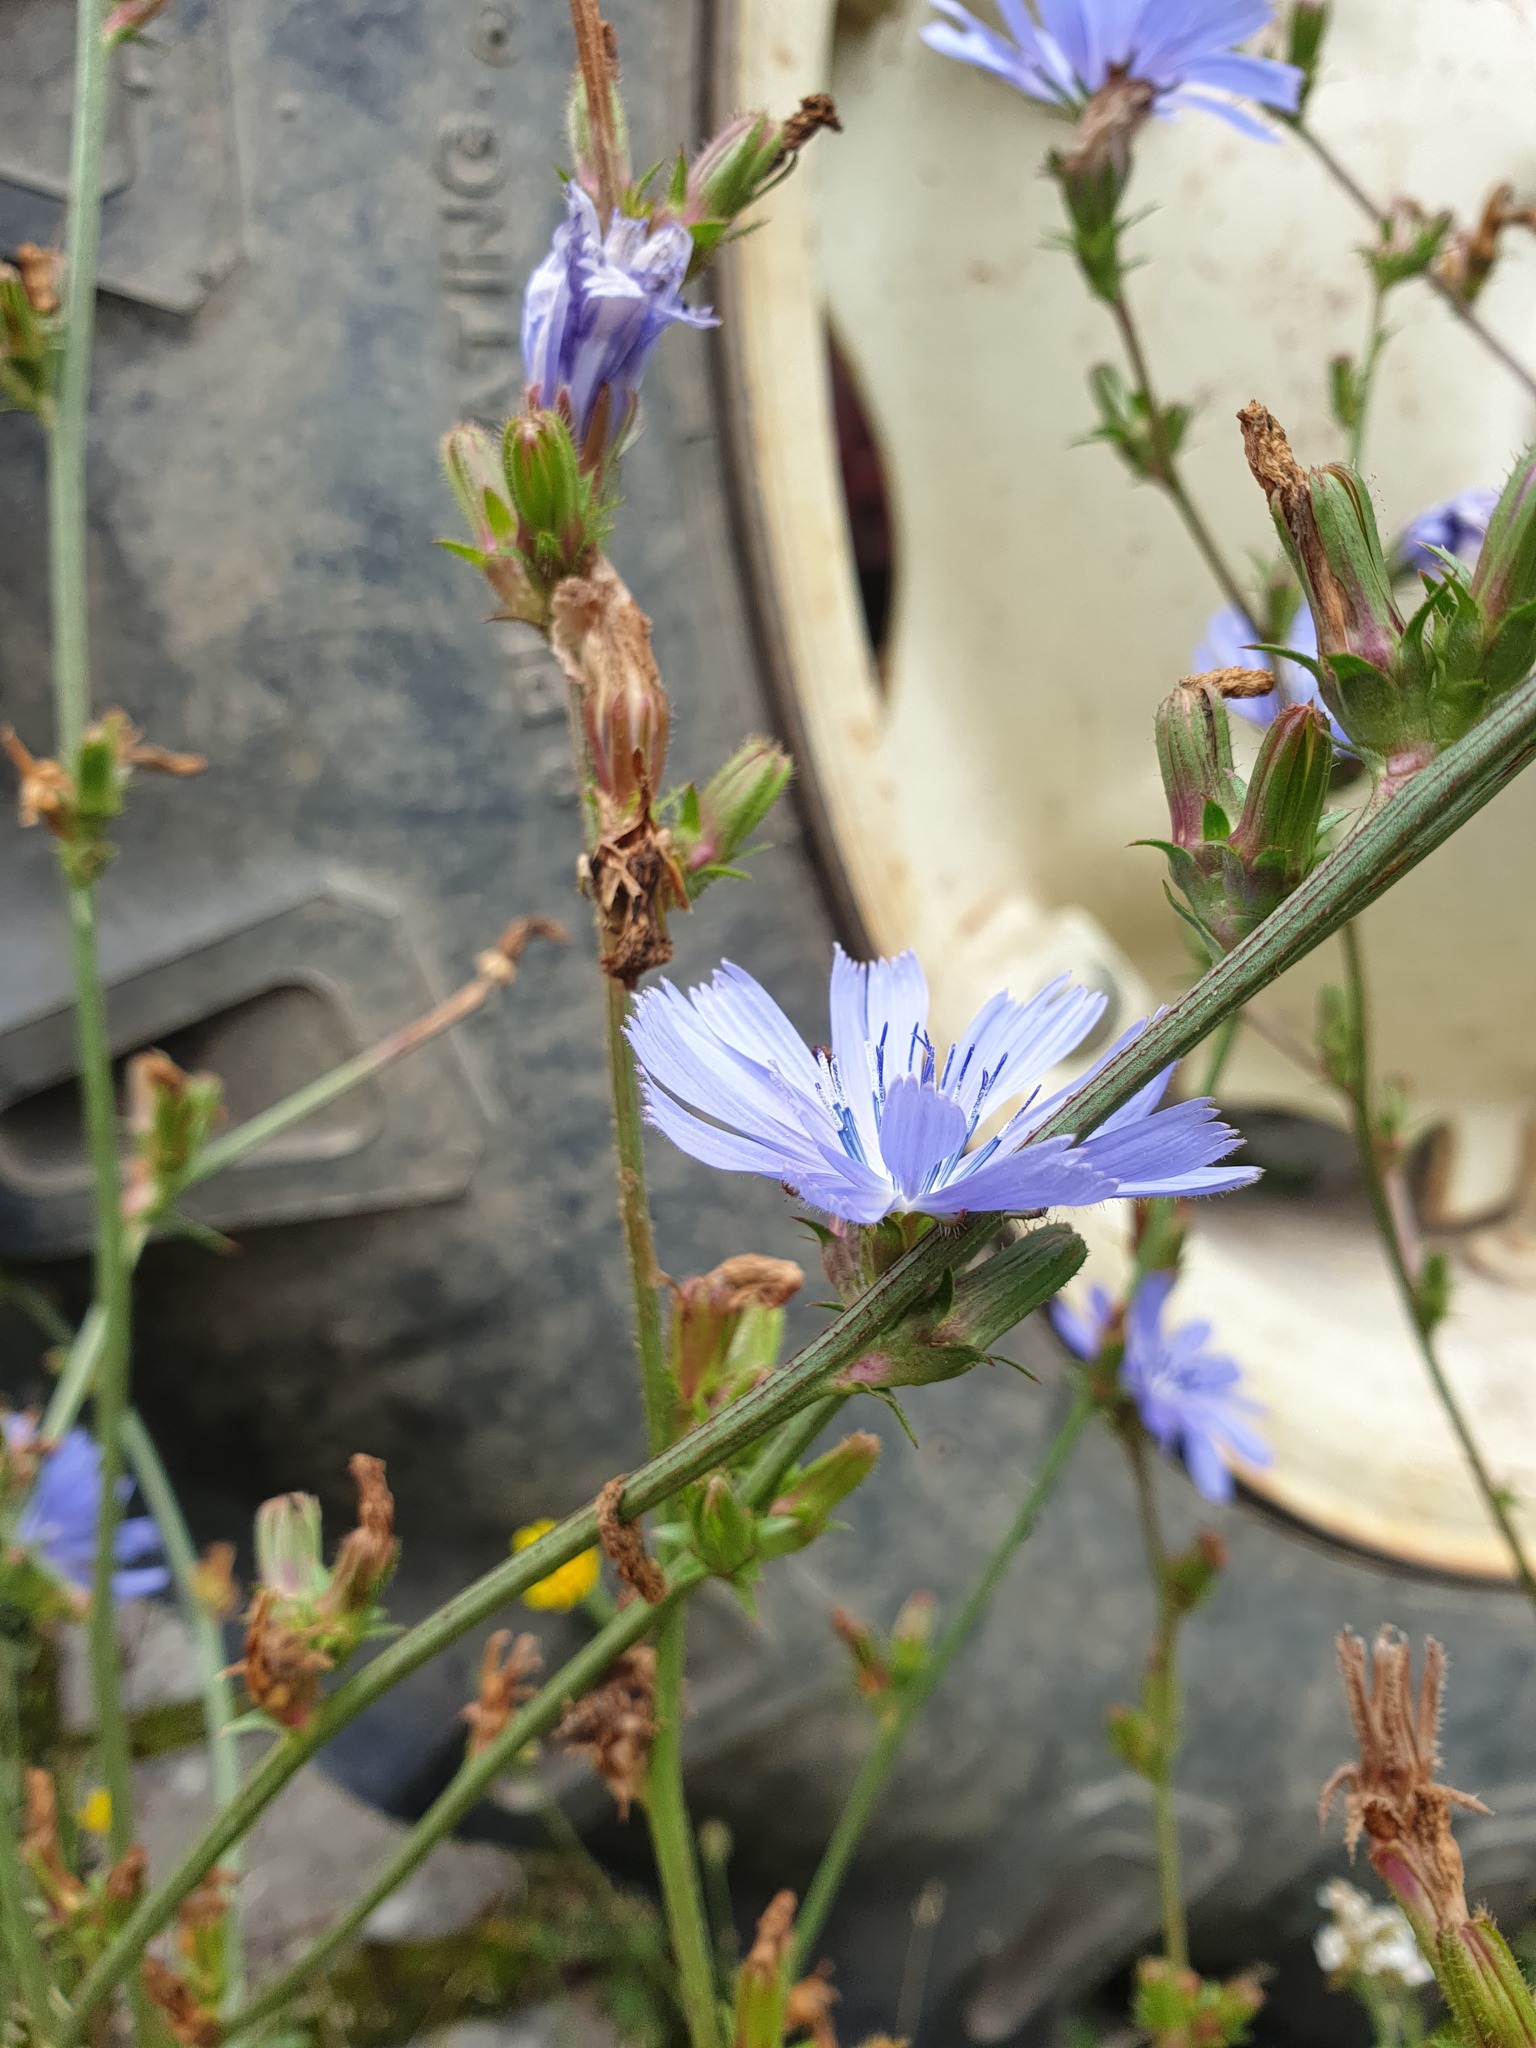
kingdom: Plantae
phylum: Tracheophyta
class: Magnoliopsida
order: Asterales
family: Asteraceae
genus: Cichorium
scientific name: Cichorium intybus
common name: Chicory
